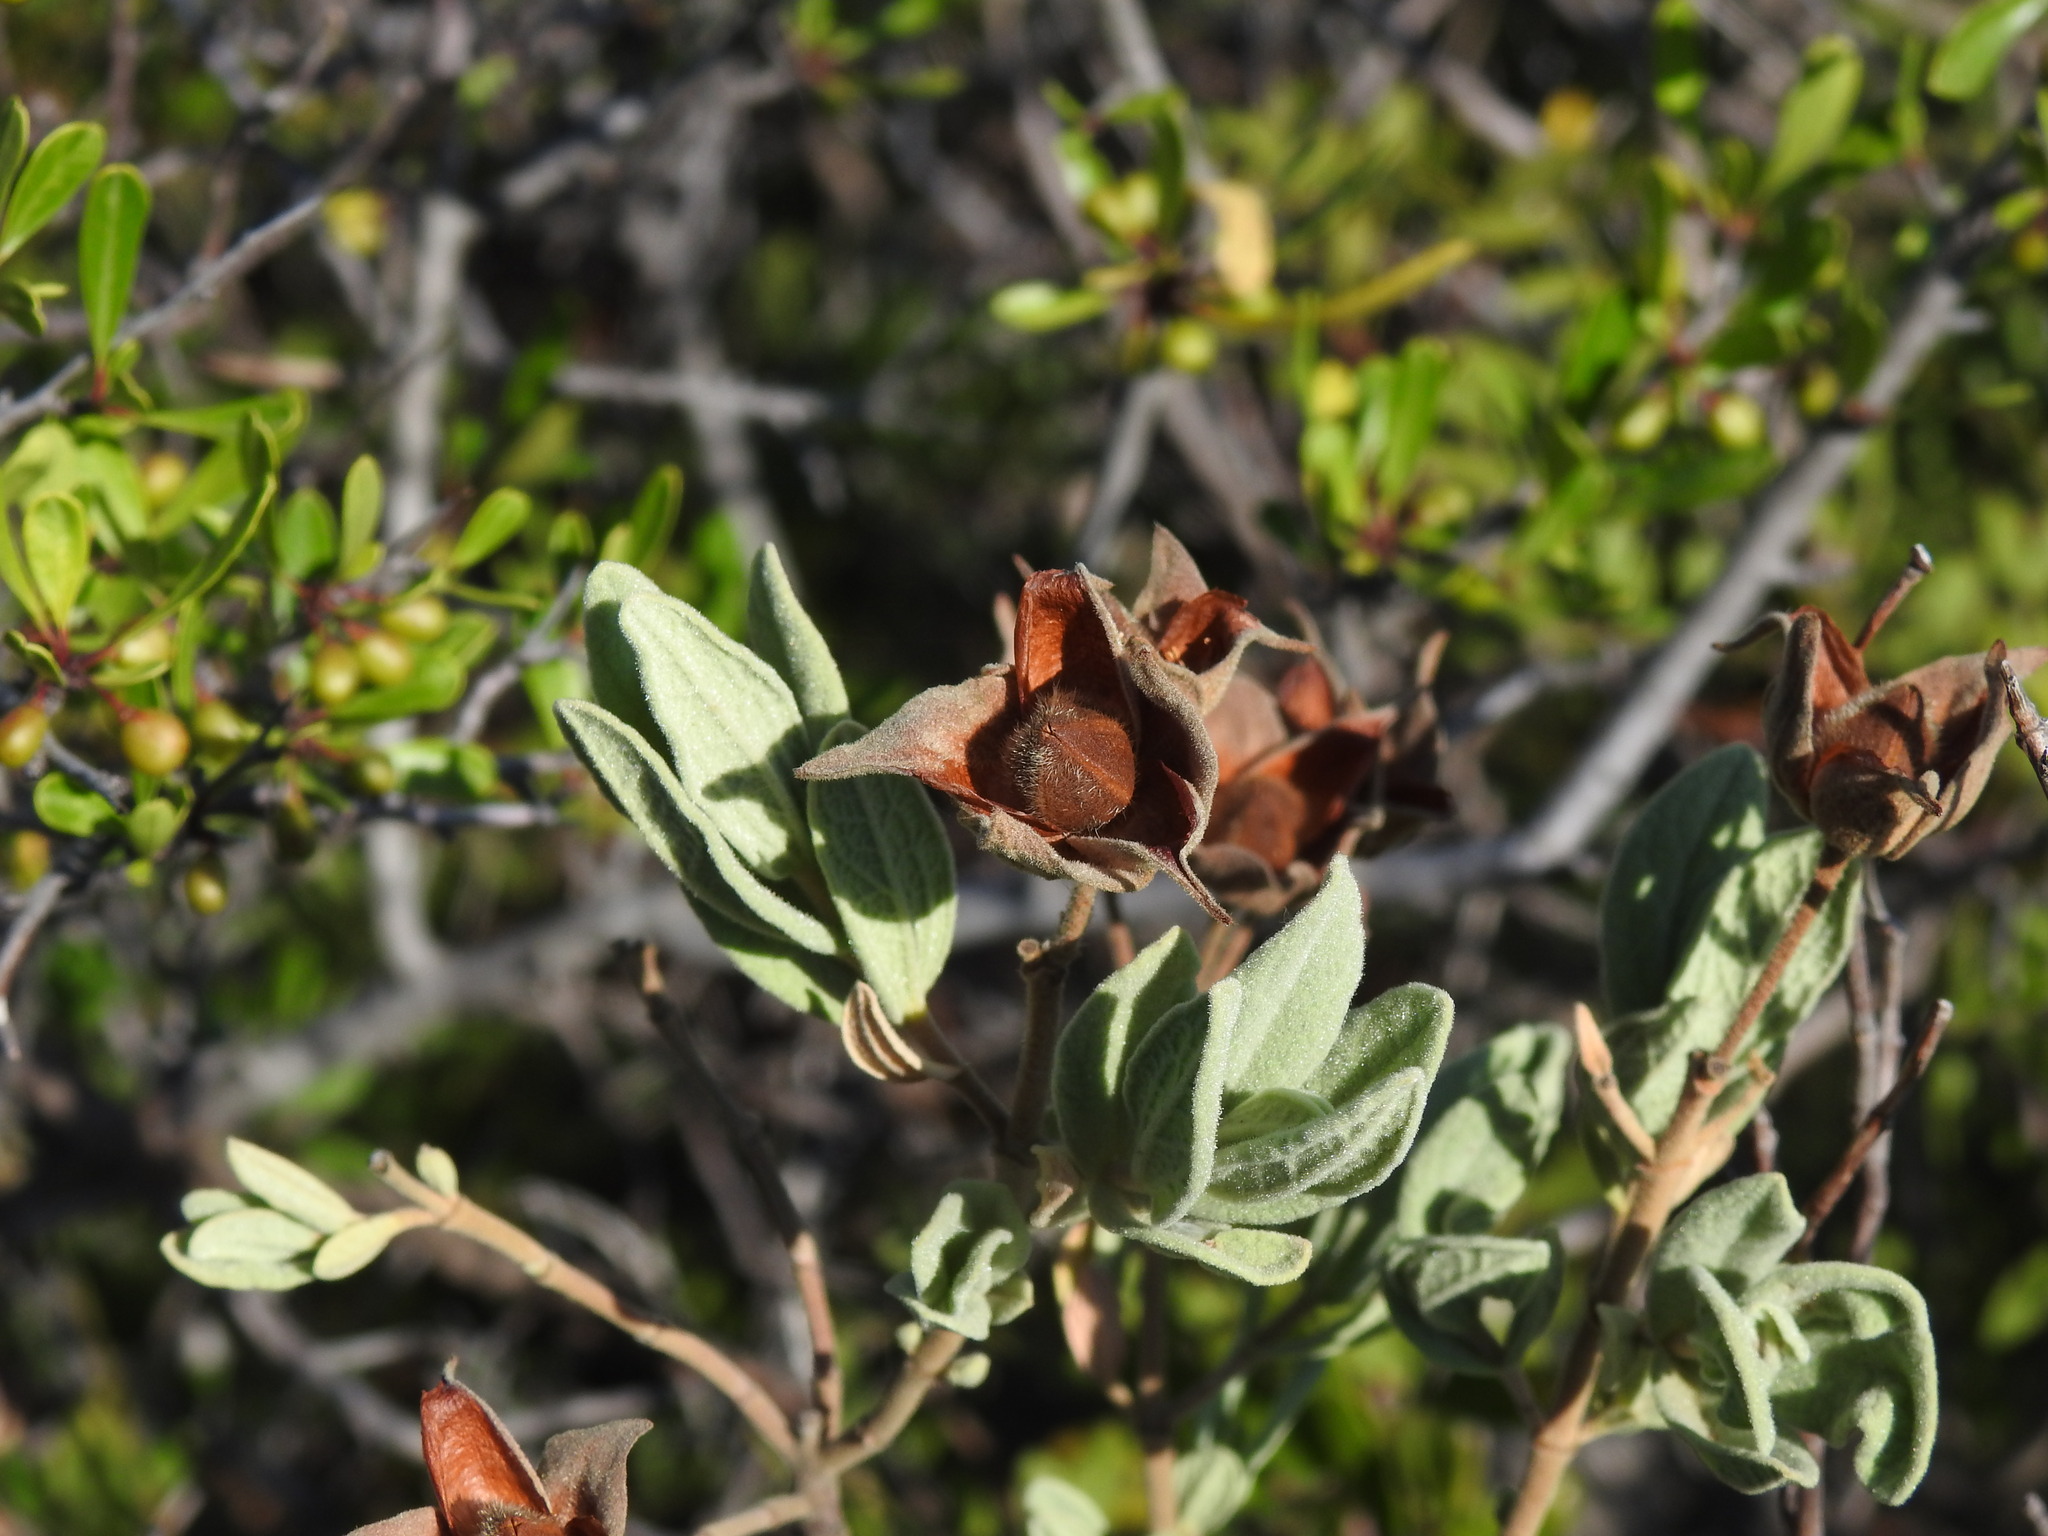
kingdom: Plantae
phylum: Tracheophyta
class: Magnoliopsida
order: Malvales
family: Cistaceae
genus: Cistus
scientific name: Cistus albidus
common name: White-leaf rock-rose
